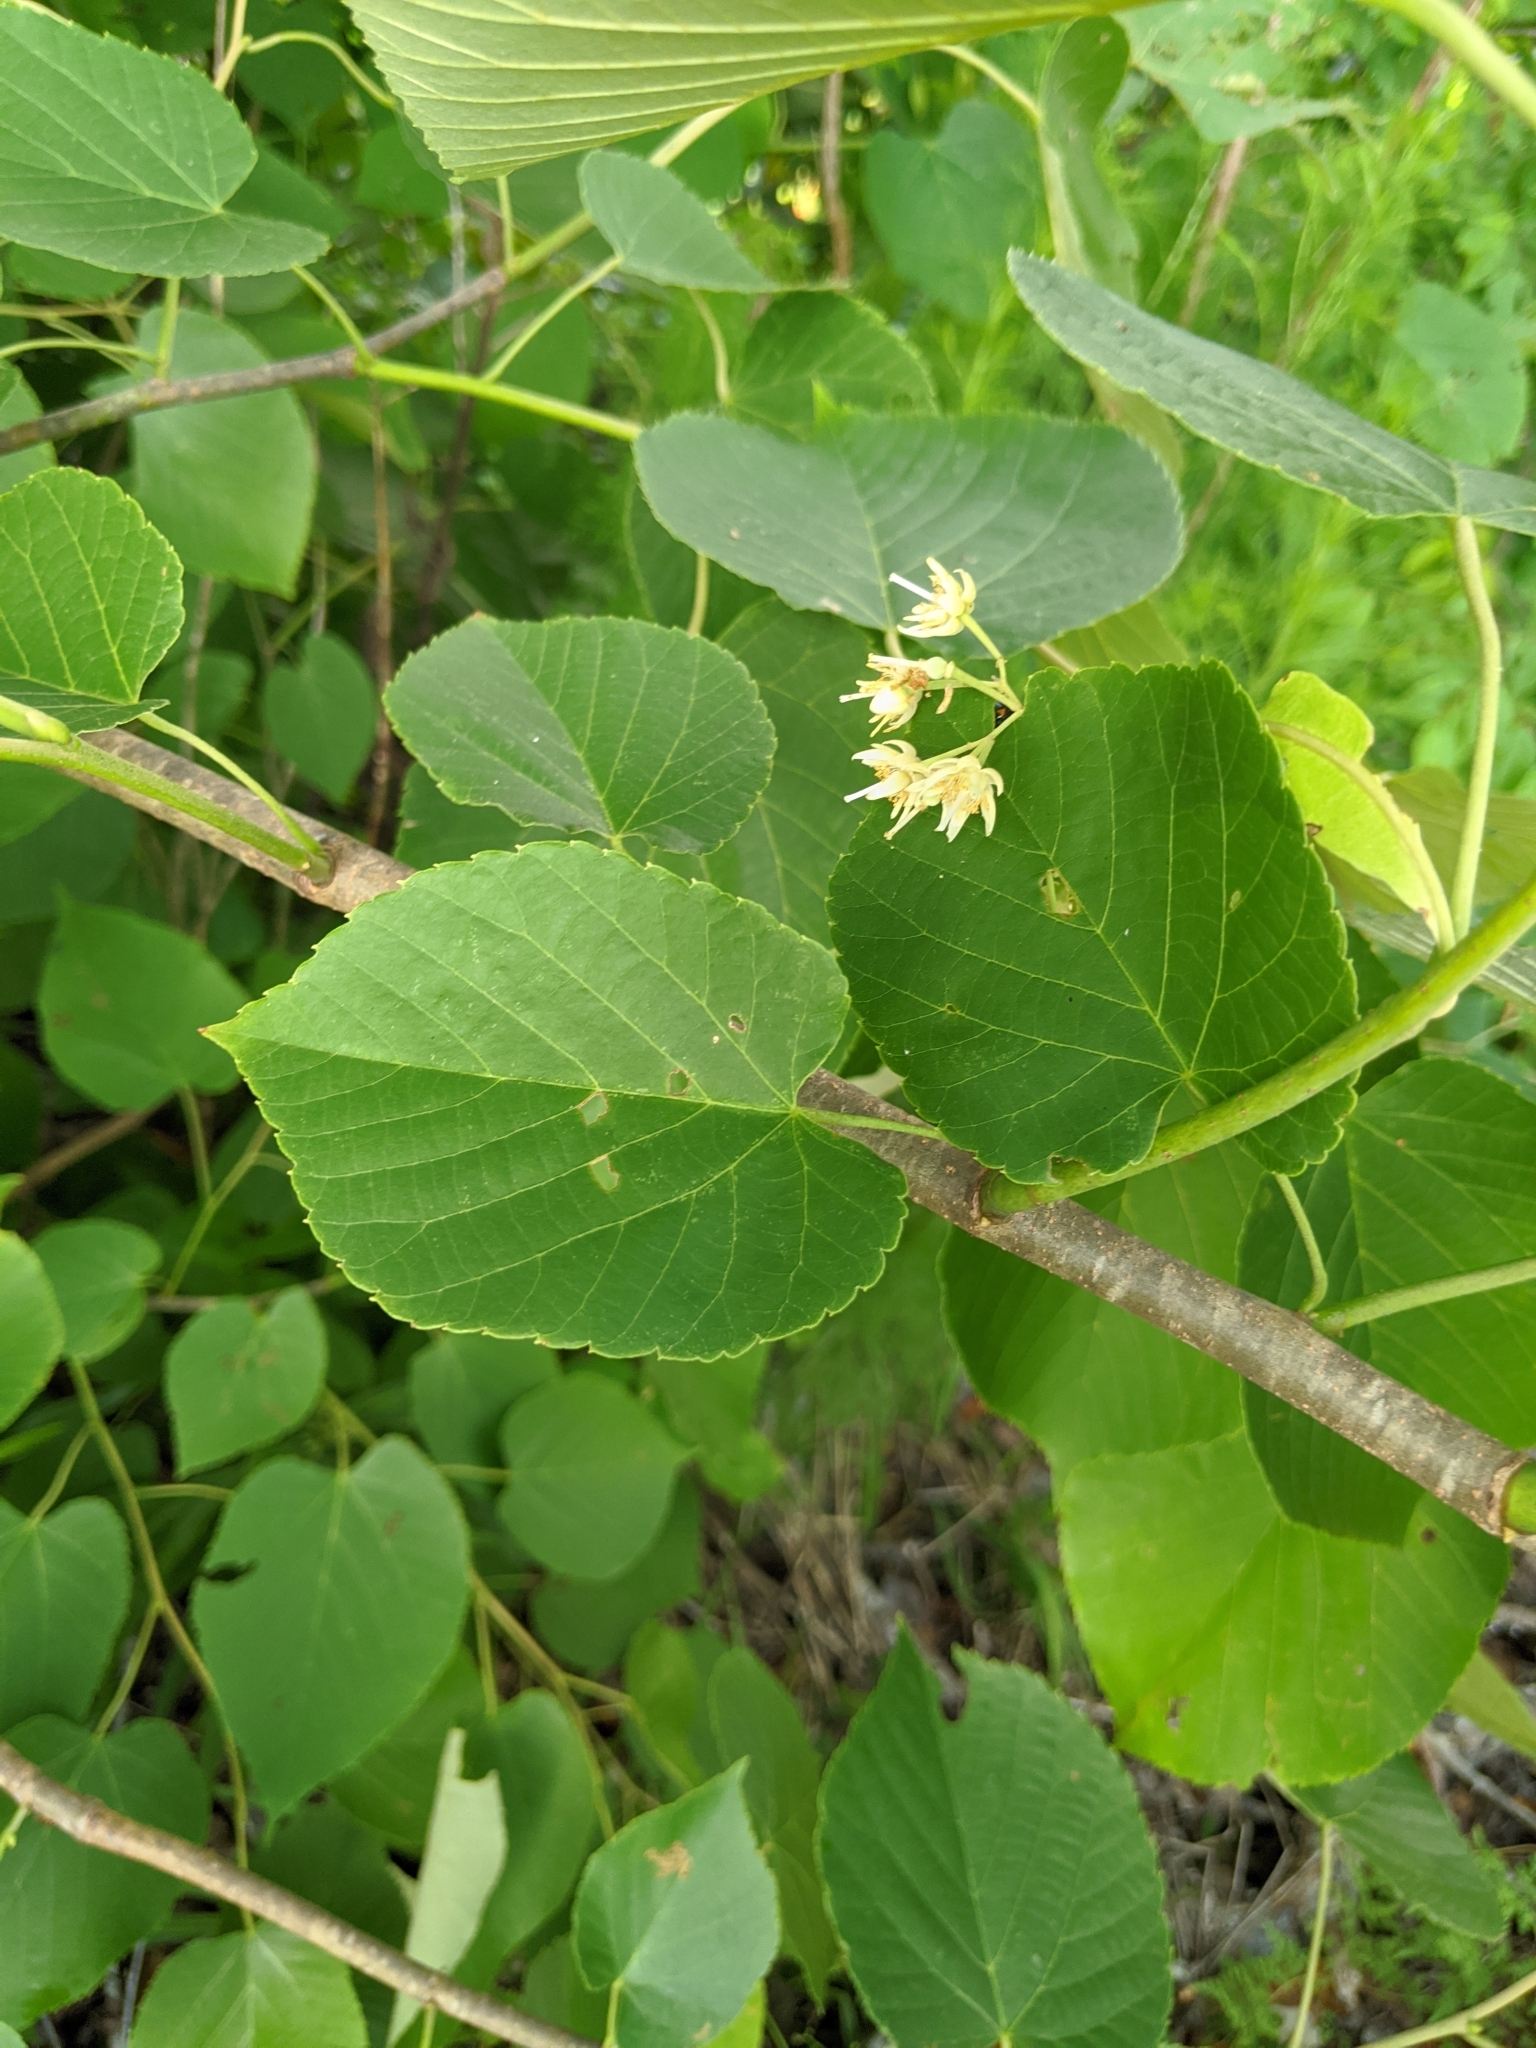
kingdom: Plantae
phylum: Tracheophyta
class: Magnoliopsida
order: Malvales
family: Malvaceae
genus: Tilia
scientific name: Tilia americana
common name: Basswood
